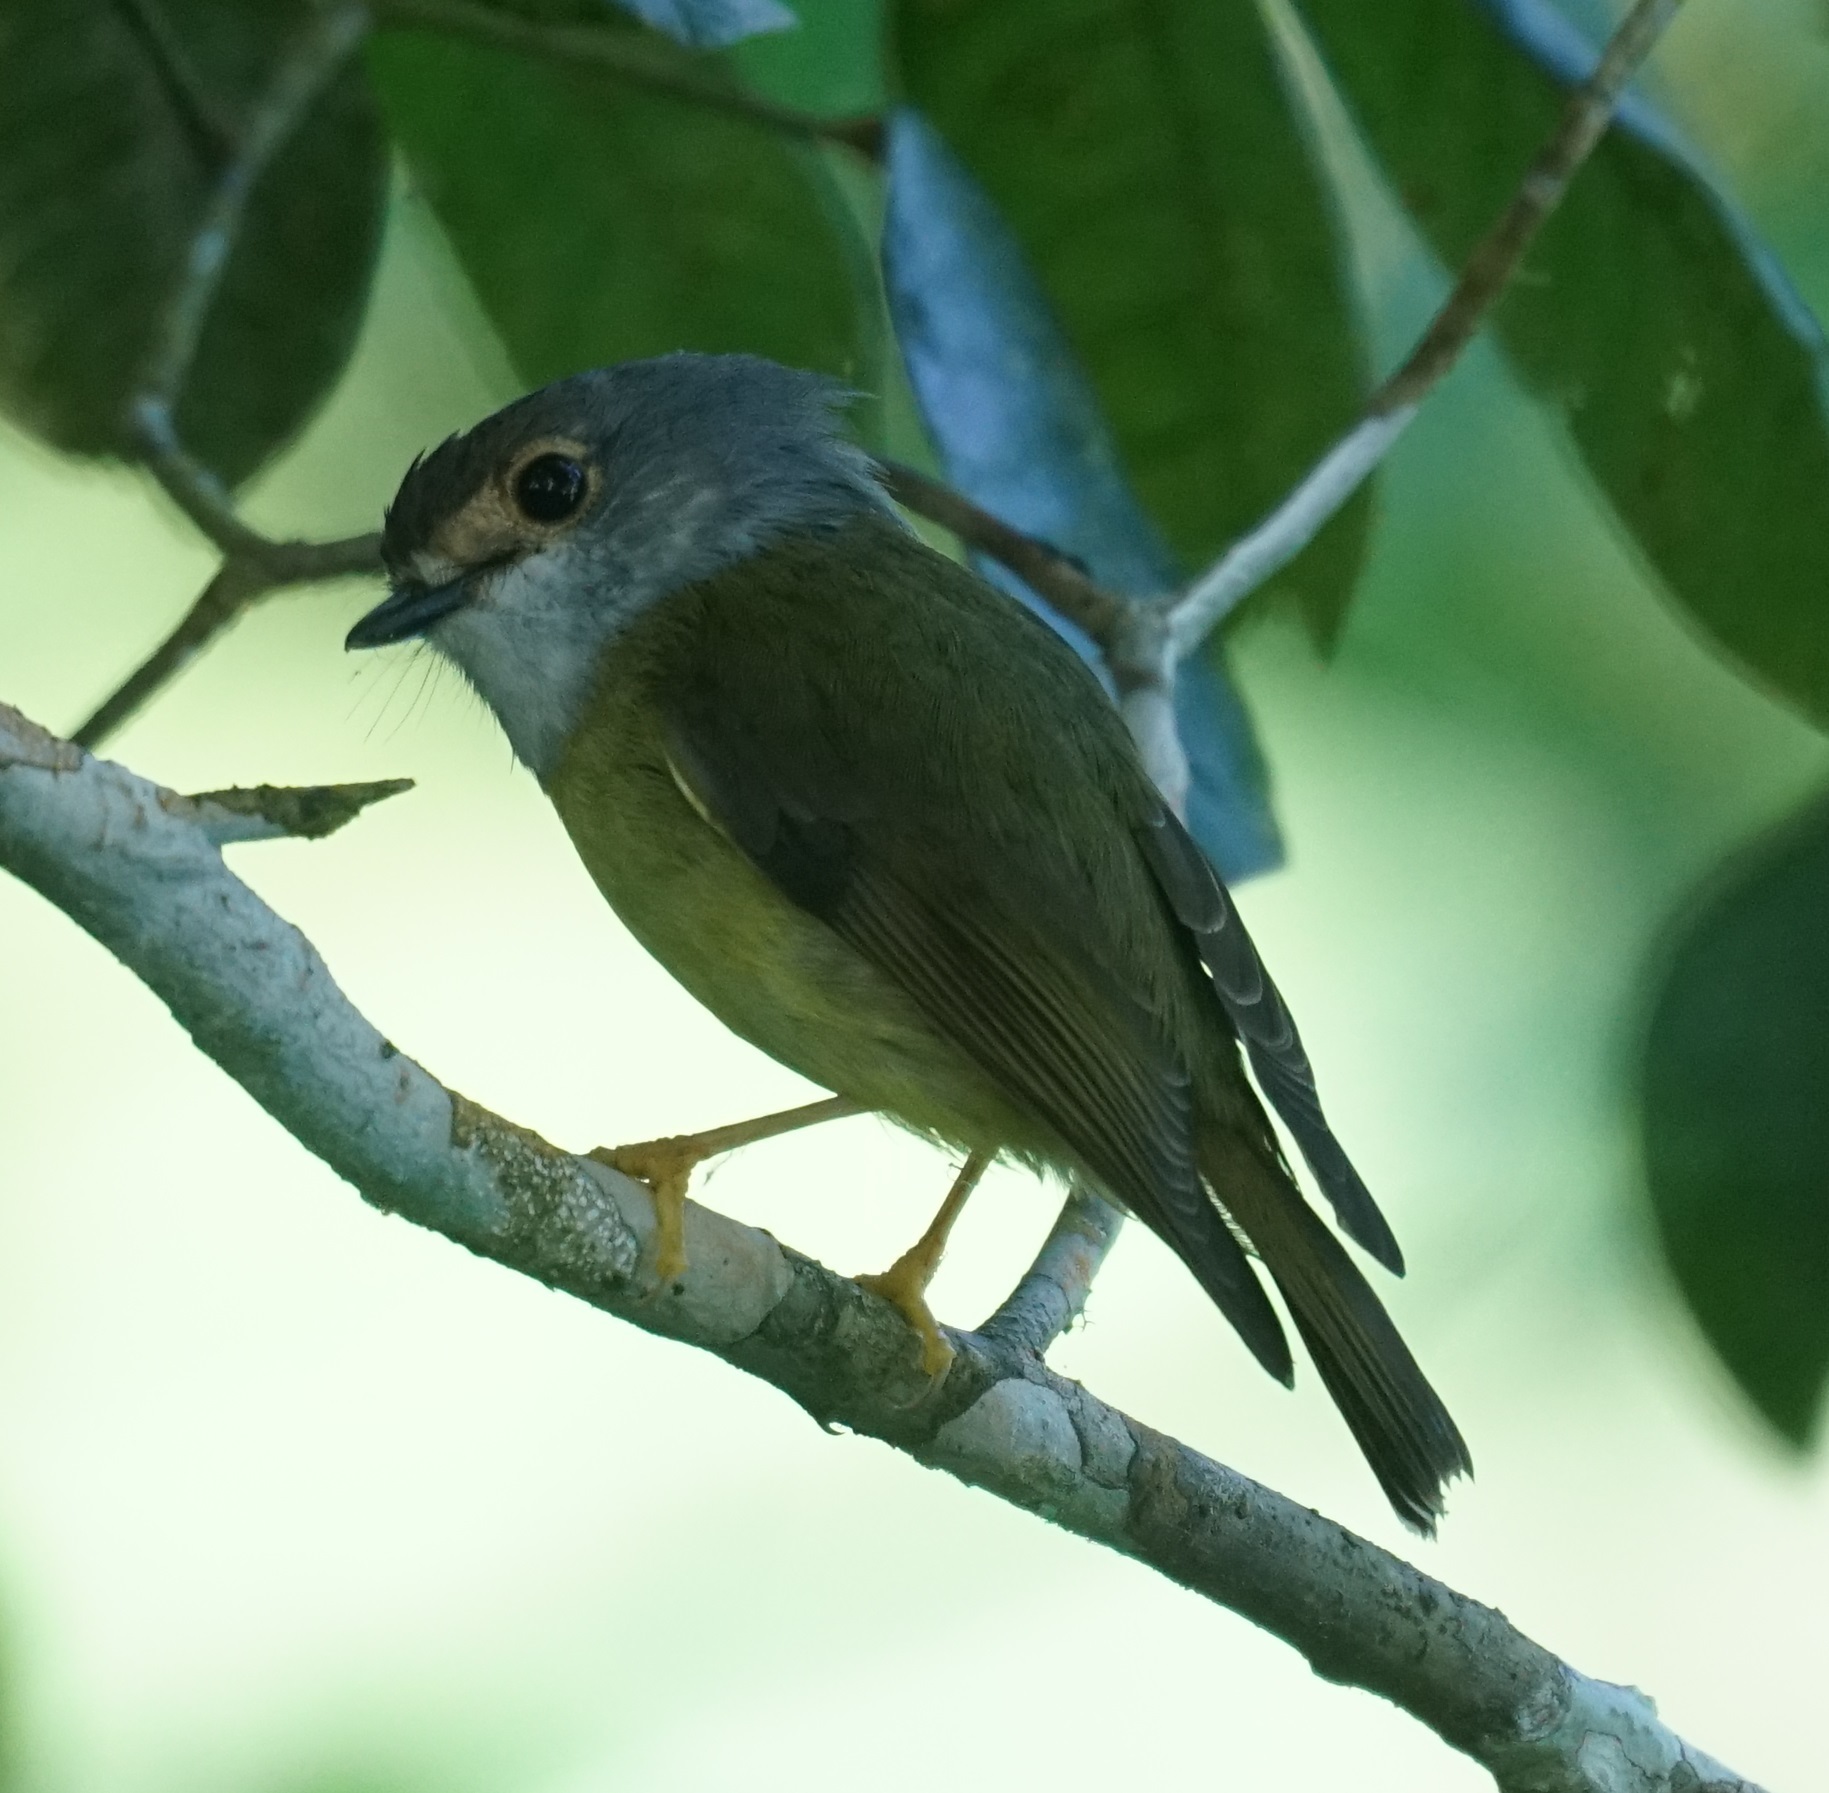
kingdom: Animalia
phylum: Chordata
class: Aves
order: Passeriformes
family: Petroicidae
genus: Eopsaltria
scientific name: Eopsaltria
